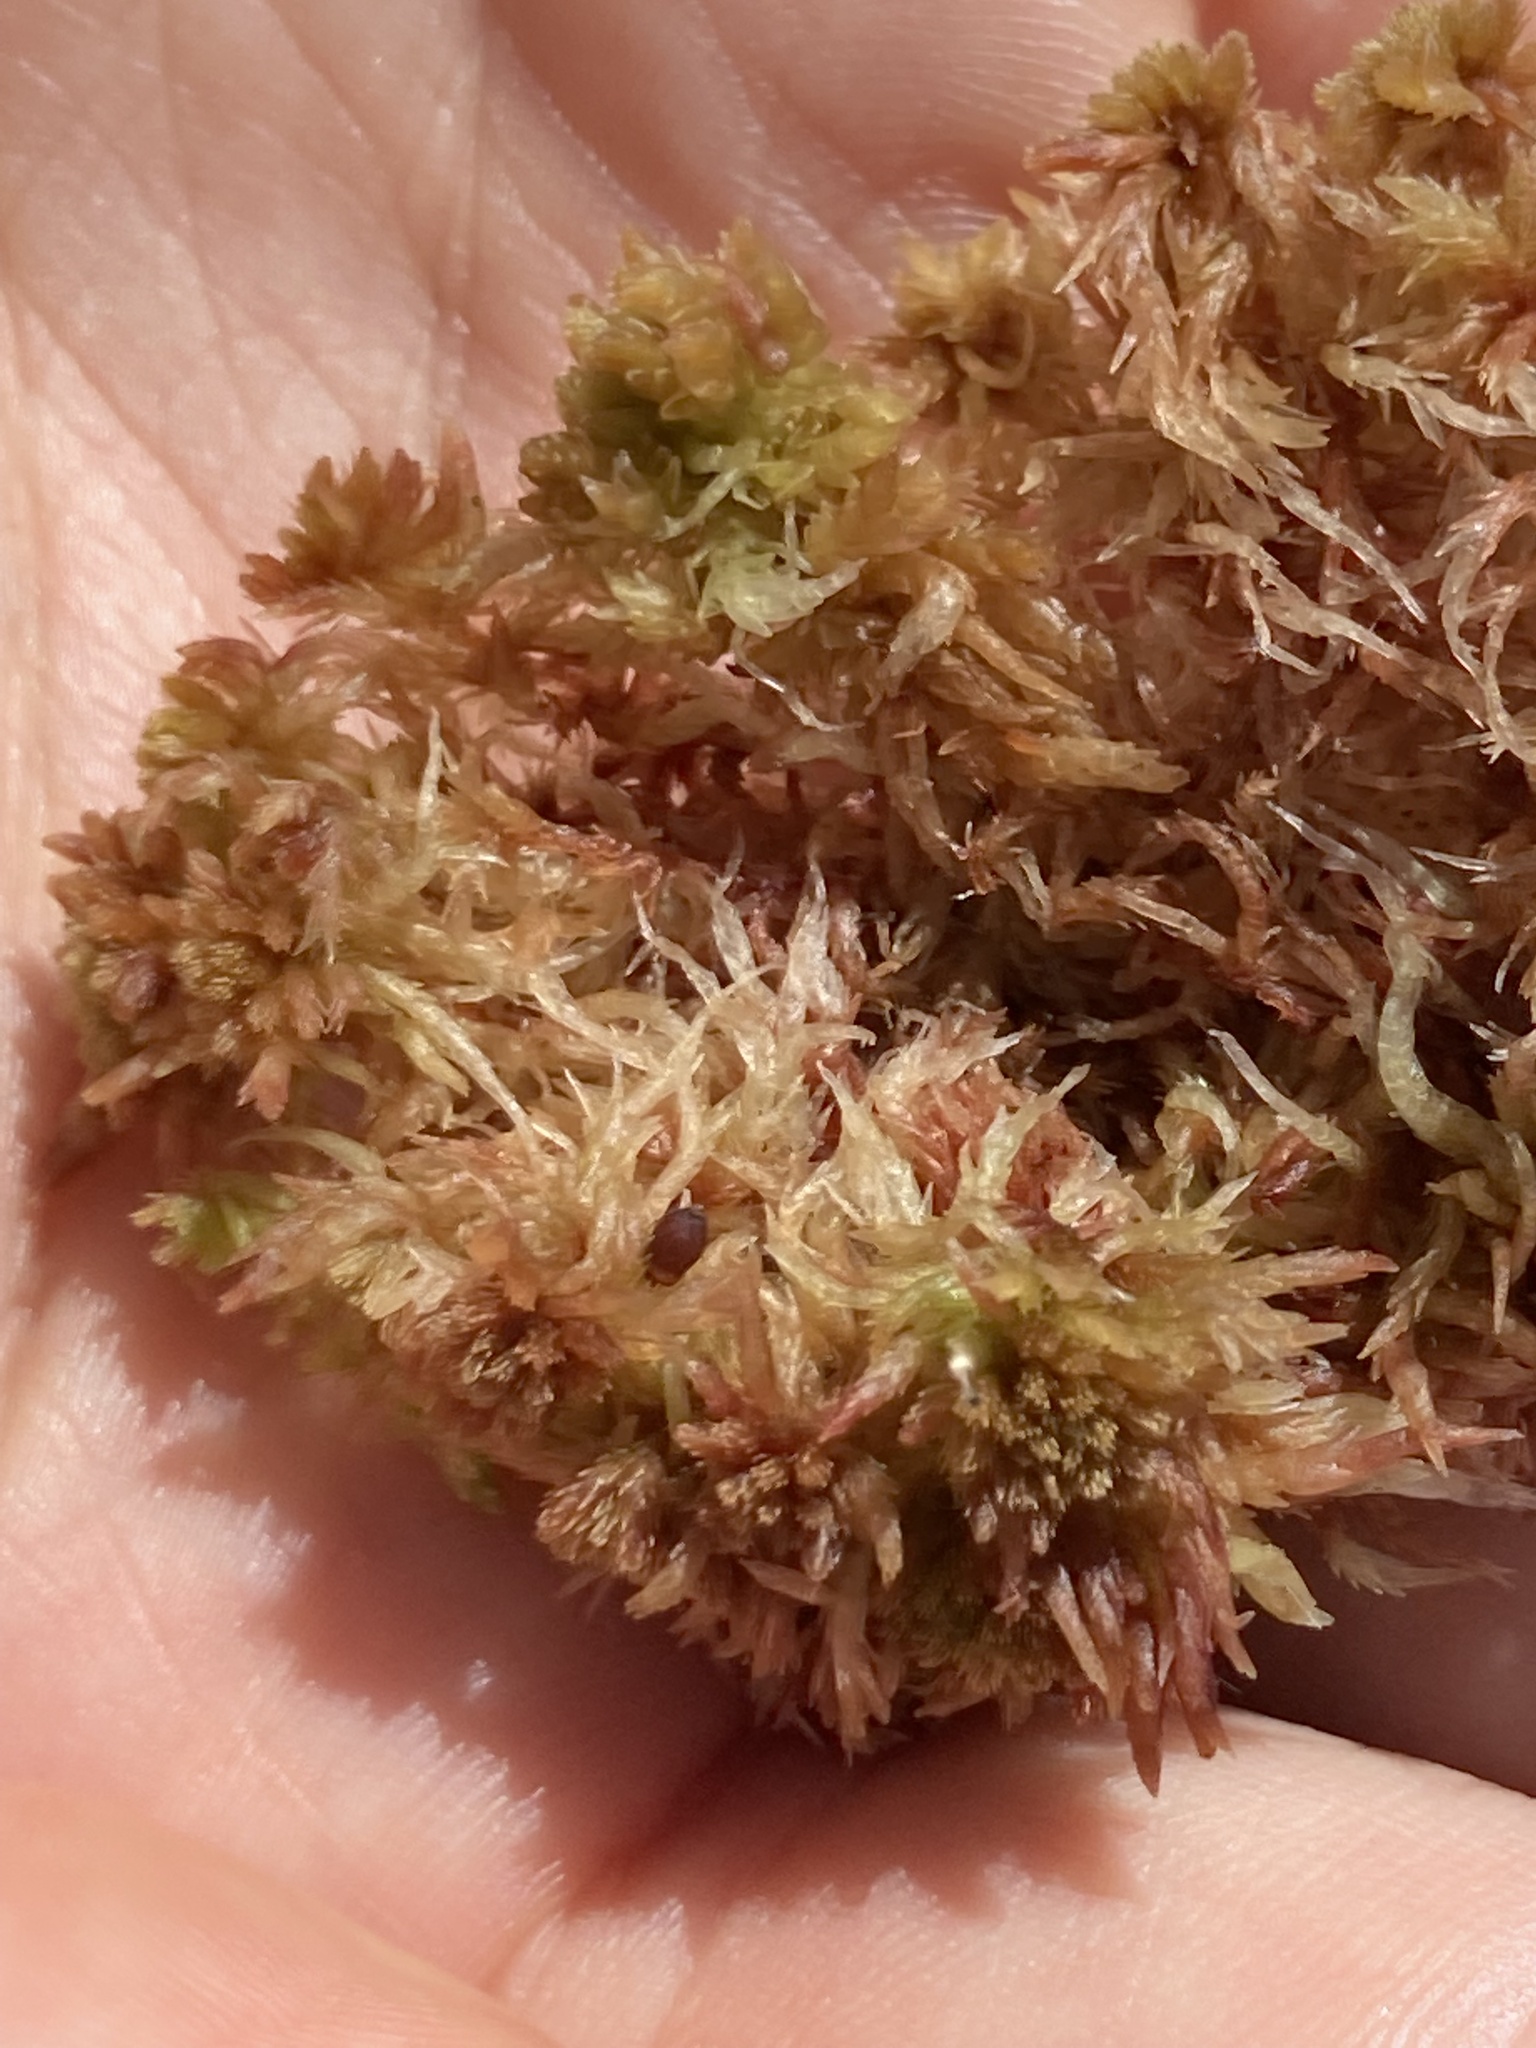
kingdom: Plantae
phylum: Bryophyta
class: Sphagnopsida
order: Sphagnales
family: Sphagnaceae
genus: Sphagnum
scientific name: Sphagnum subnitens
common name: Lustrous bog-moss
